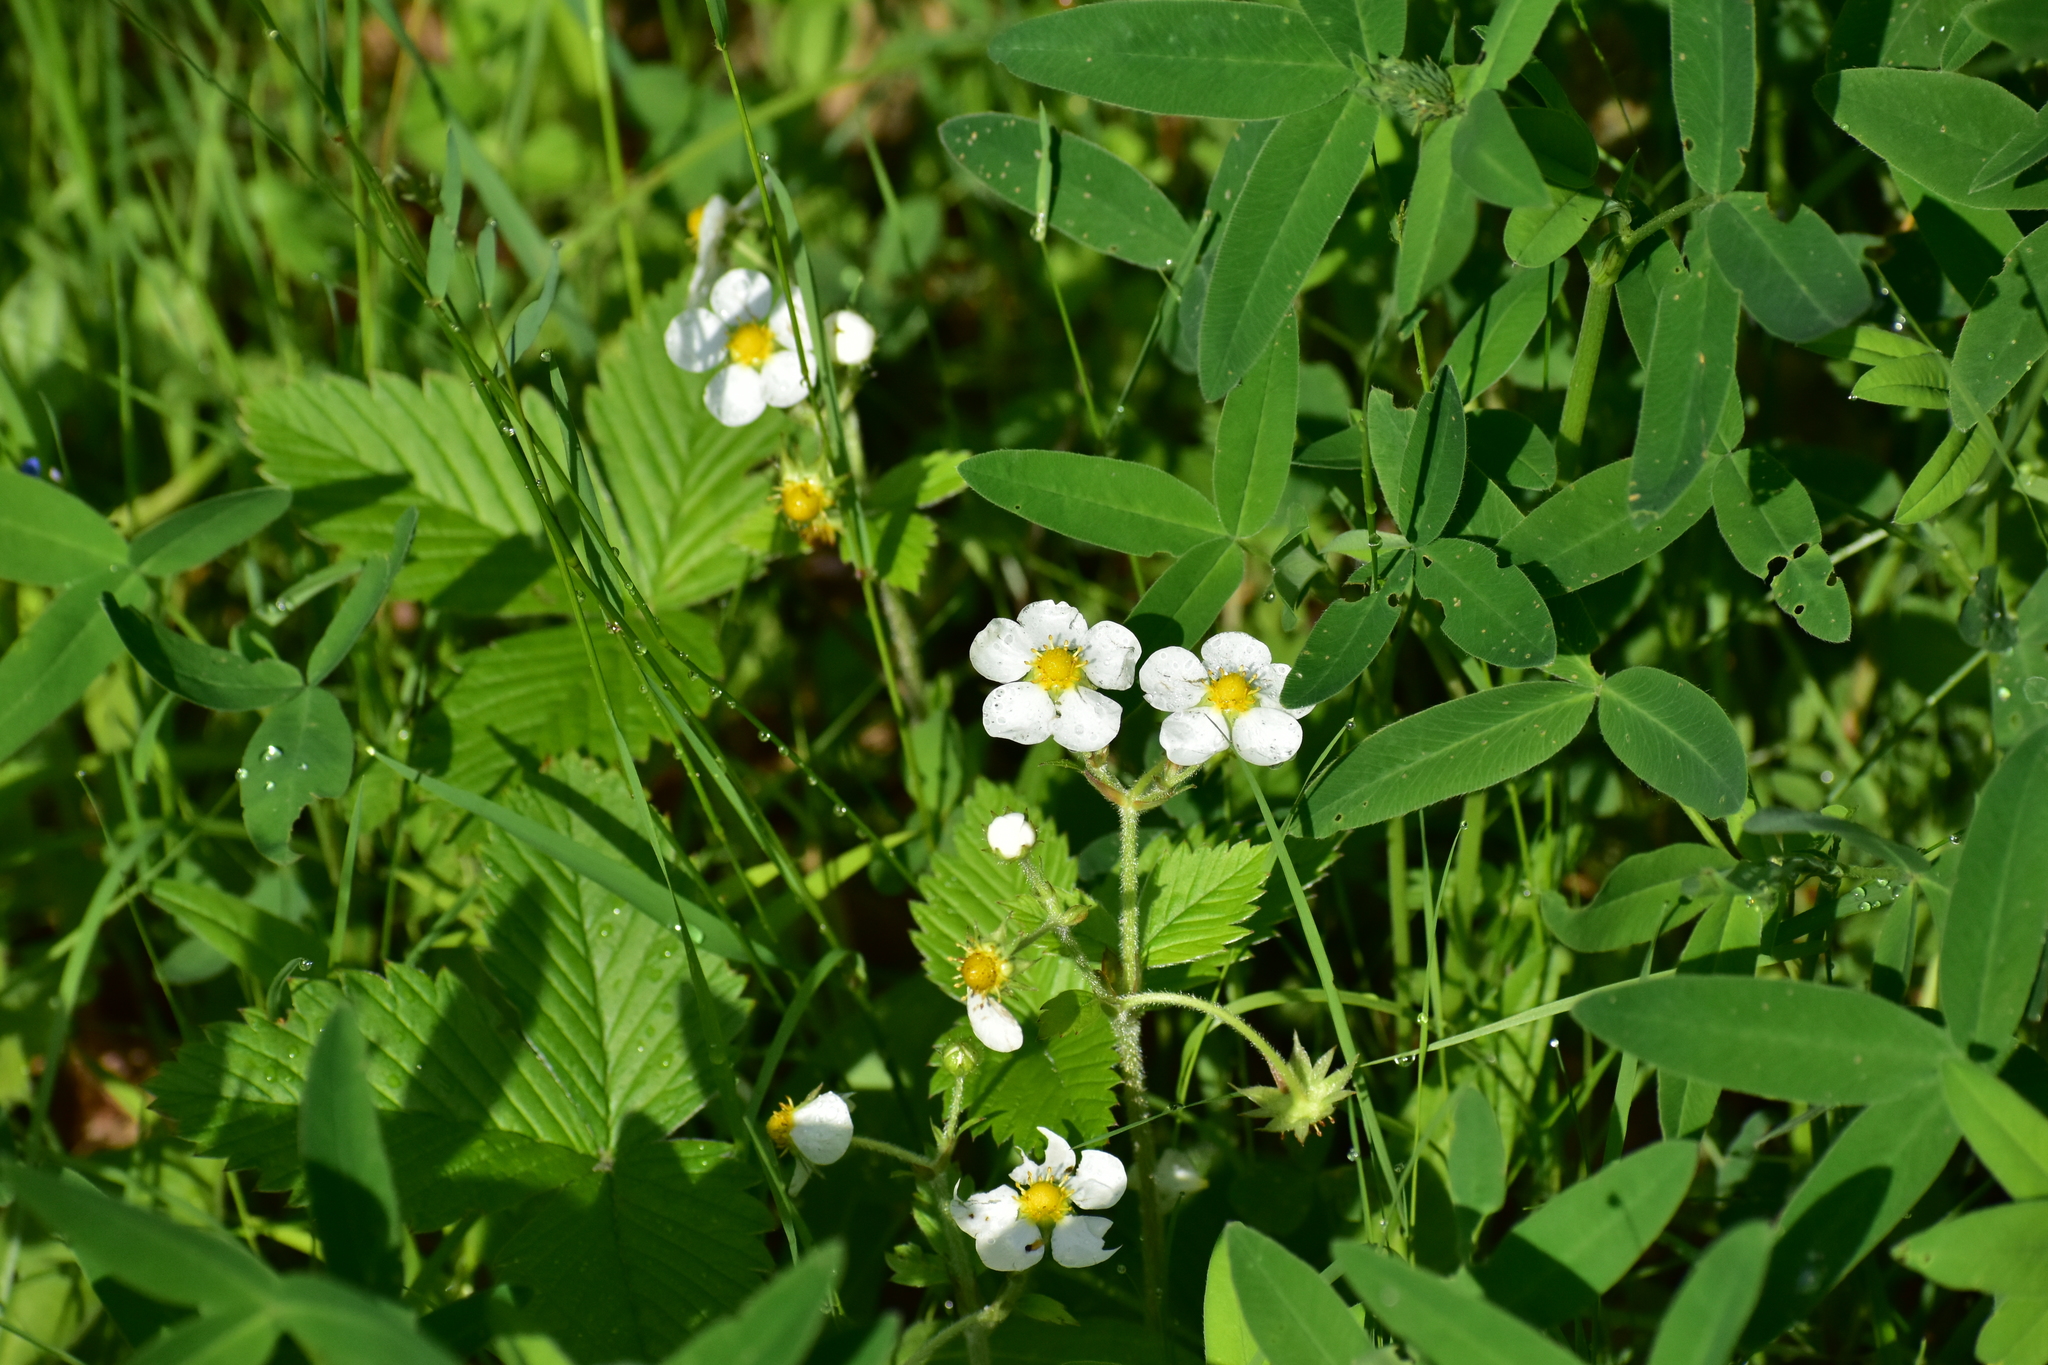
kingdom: Plantae
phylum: Tracheophyta
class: Magnoliopsida
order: Rosales
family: Rosaceae
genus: Fragaria
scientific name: Fragaria moschata
